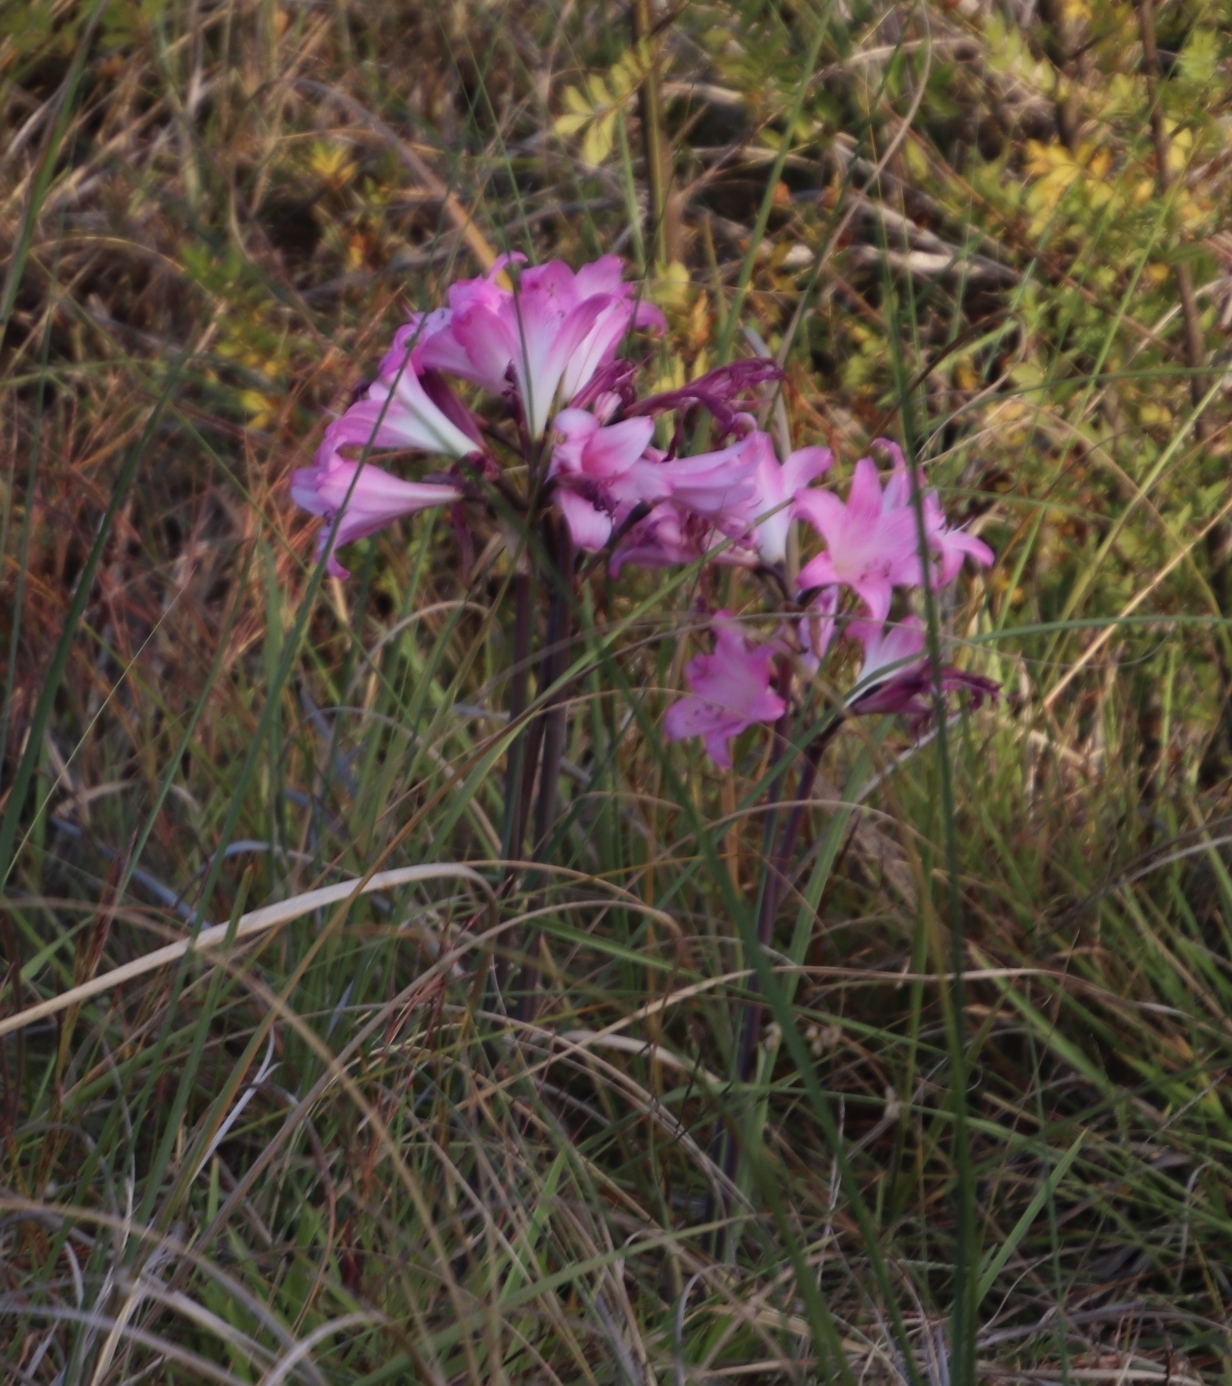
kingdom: Plantae
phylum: Tracheophyta
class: Liliopsida
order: Asparagales
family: Amaryllidaceae
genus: Amaryllis
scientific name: Amaryllis belladonna
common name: Jersey lily
